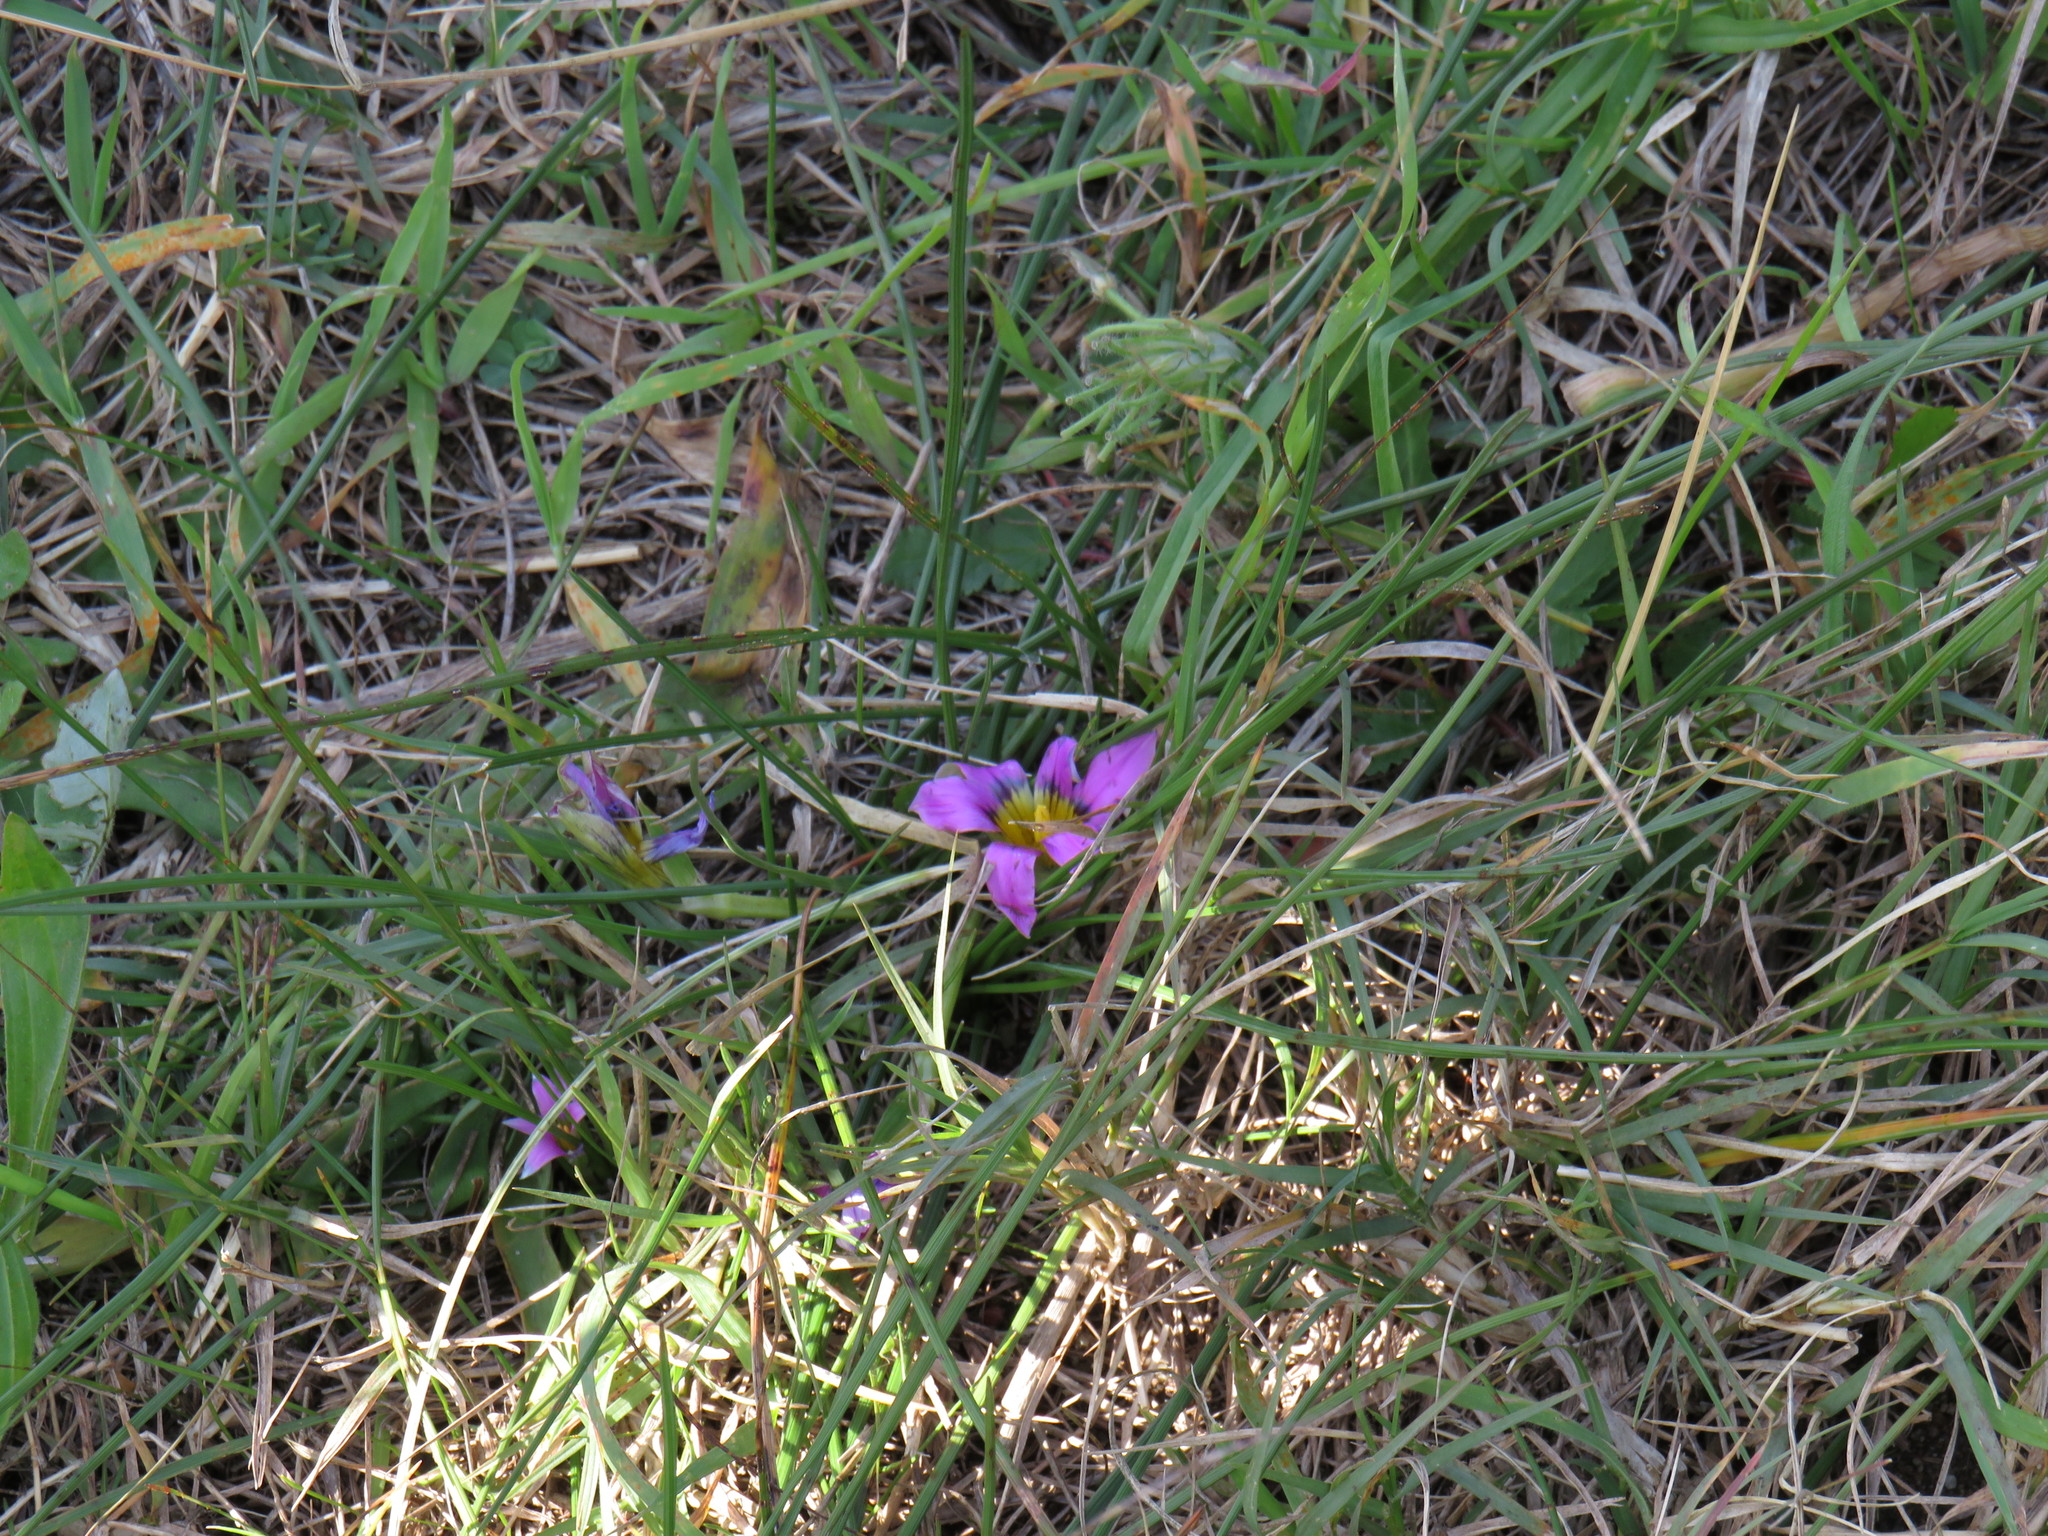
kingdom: Plantae
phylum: Tracheophyta
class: Liliopsida
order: Asparagales
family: Iridaceae
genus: Romulea
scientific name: Romulea rosea
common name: Oniongrass
